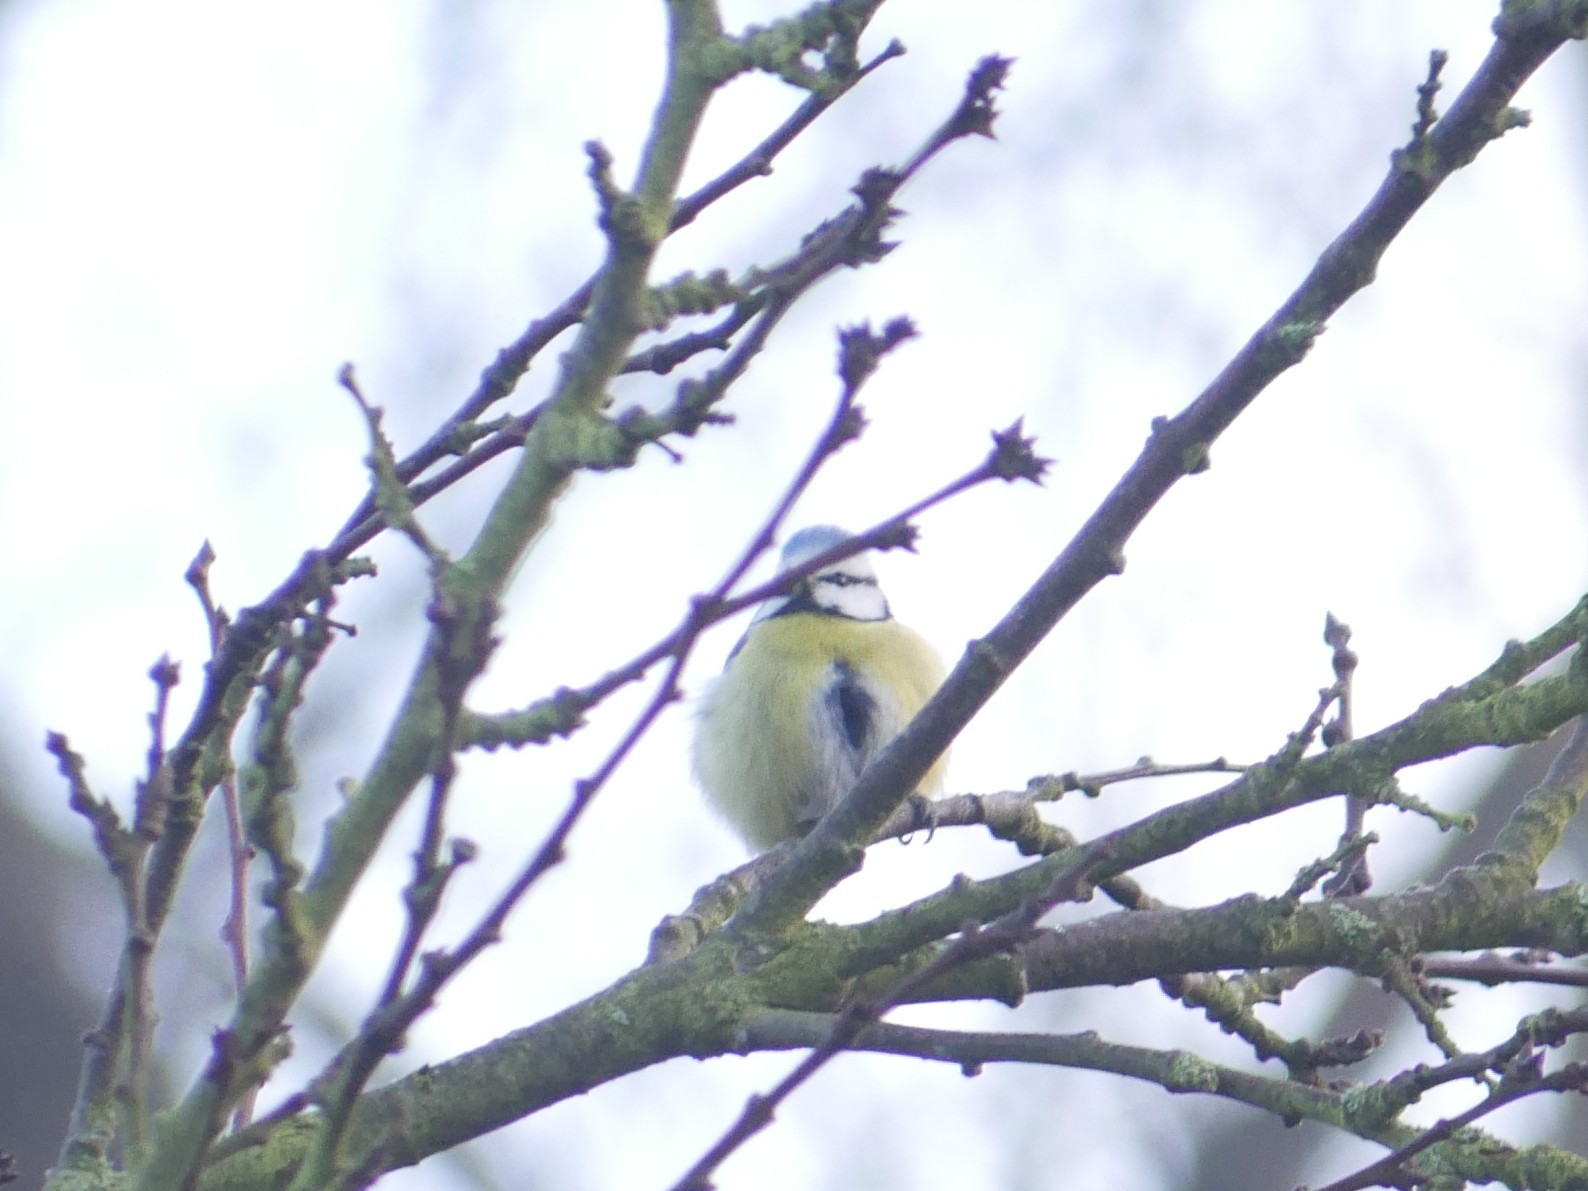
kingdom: Animalia
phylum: Chordata
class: Aves
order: Passeriformes
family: Paridae
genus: Cyanistes
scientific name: Cyanistes caeruleus
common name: Eurasian blue tit
